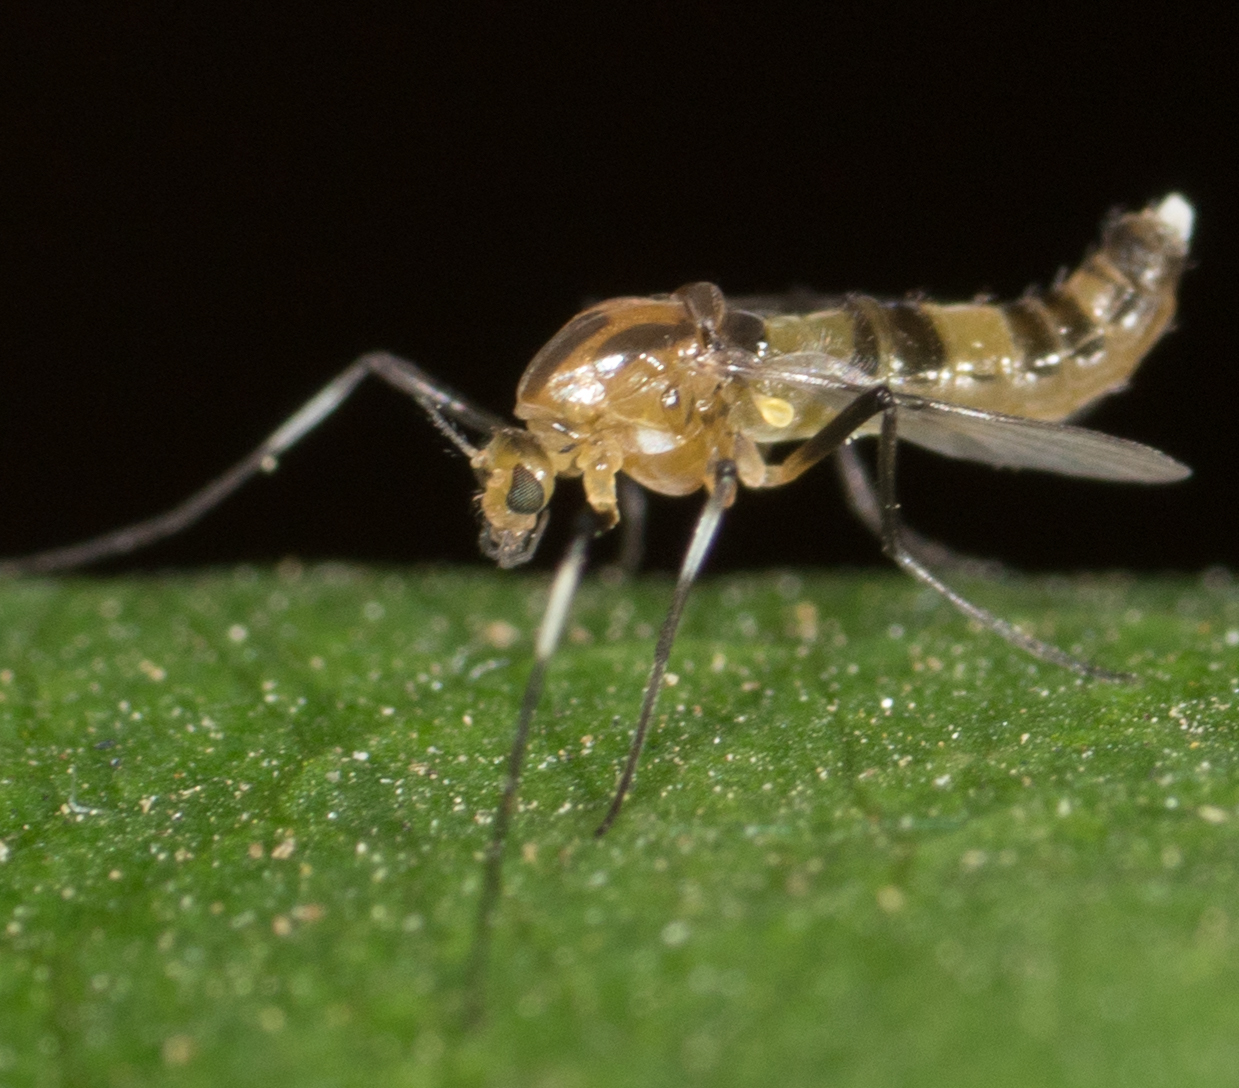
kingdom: Animalia
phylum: Arthropoda
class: Insecta
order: Diptera
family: Chironomidae
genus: Cricotopus
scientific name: Cricotopus
